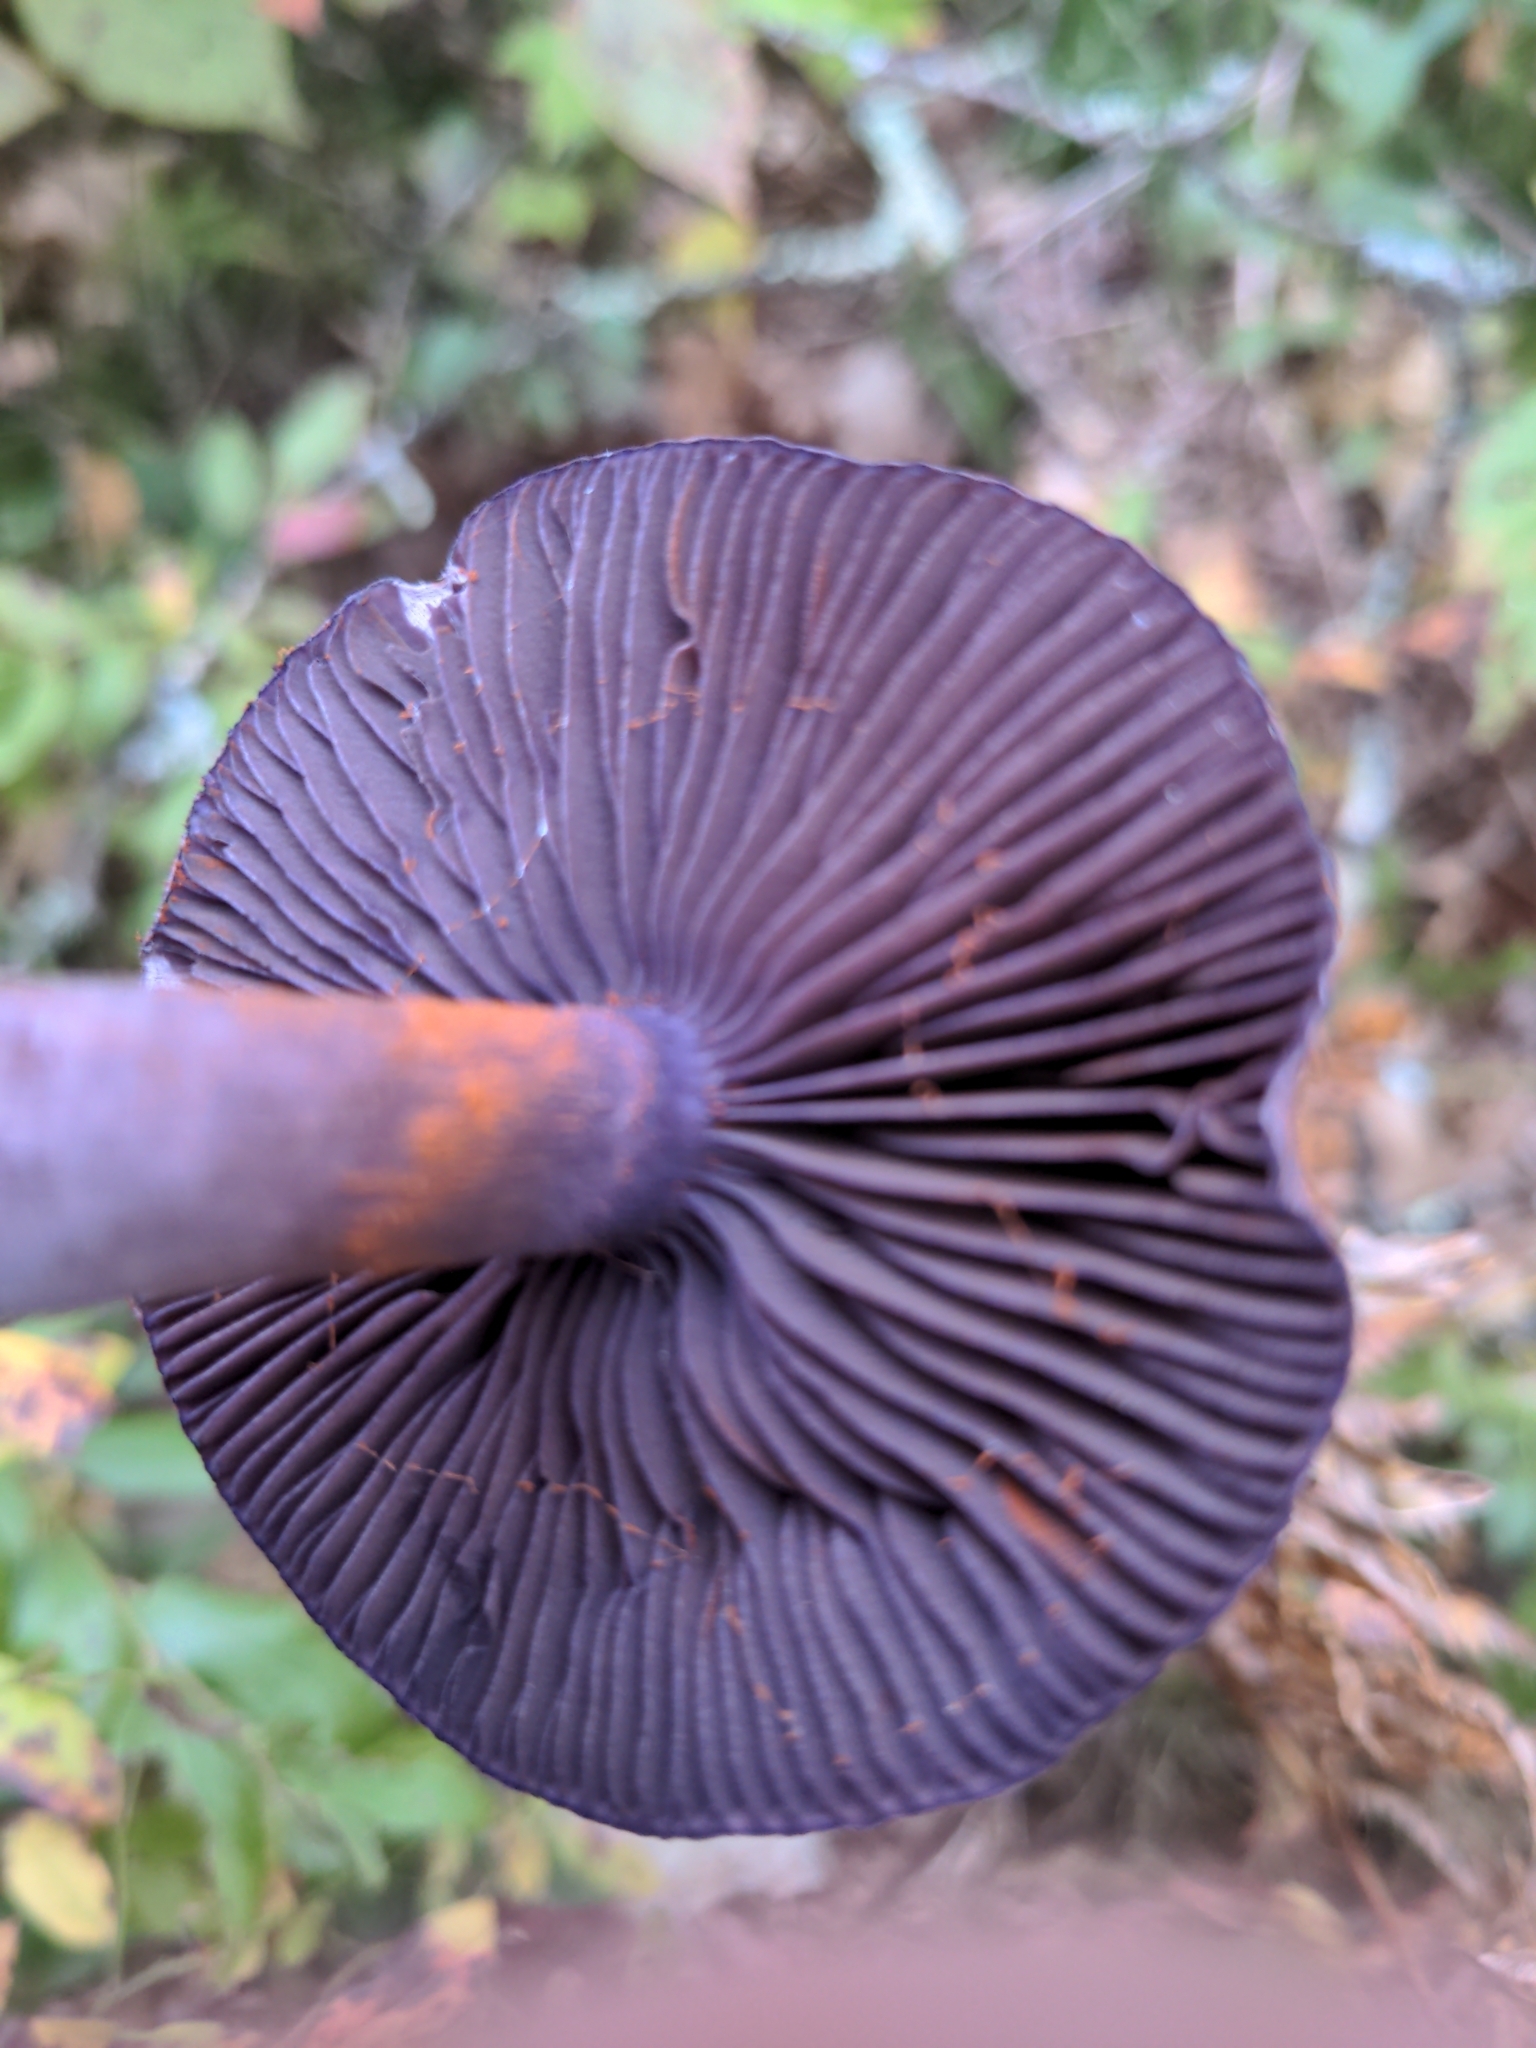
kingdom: Fungi
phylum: Basidiomycota
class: Agaricomycetes
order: Agaricales
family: Cortinariaceae
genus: Cortinarius
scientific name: Cortinarius violaceus
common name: Violet webcap
